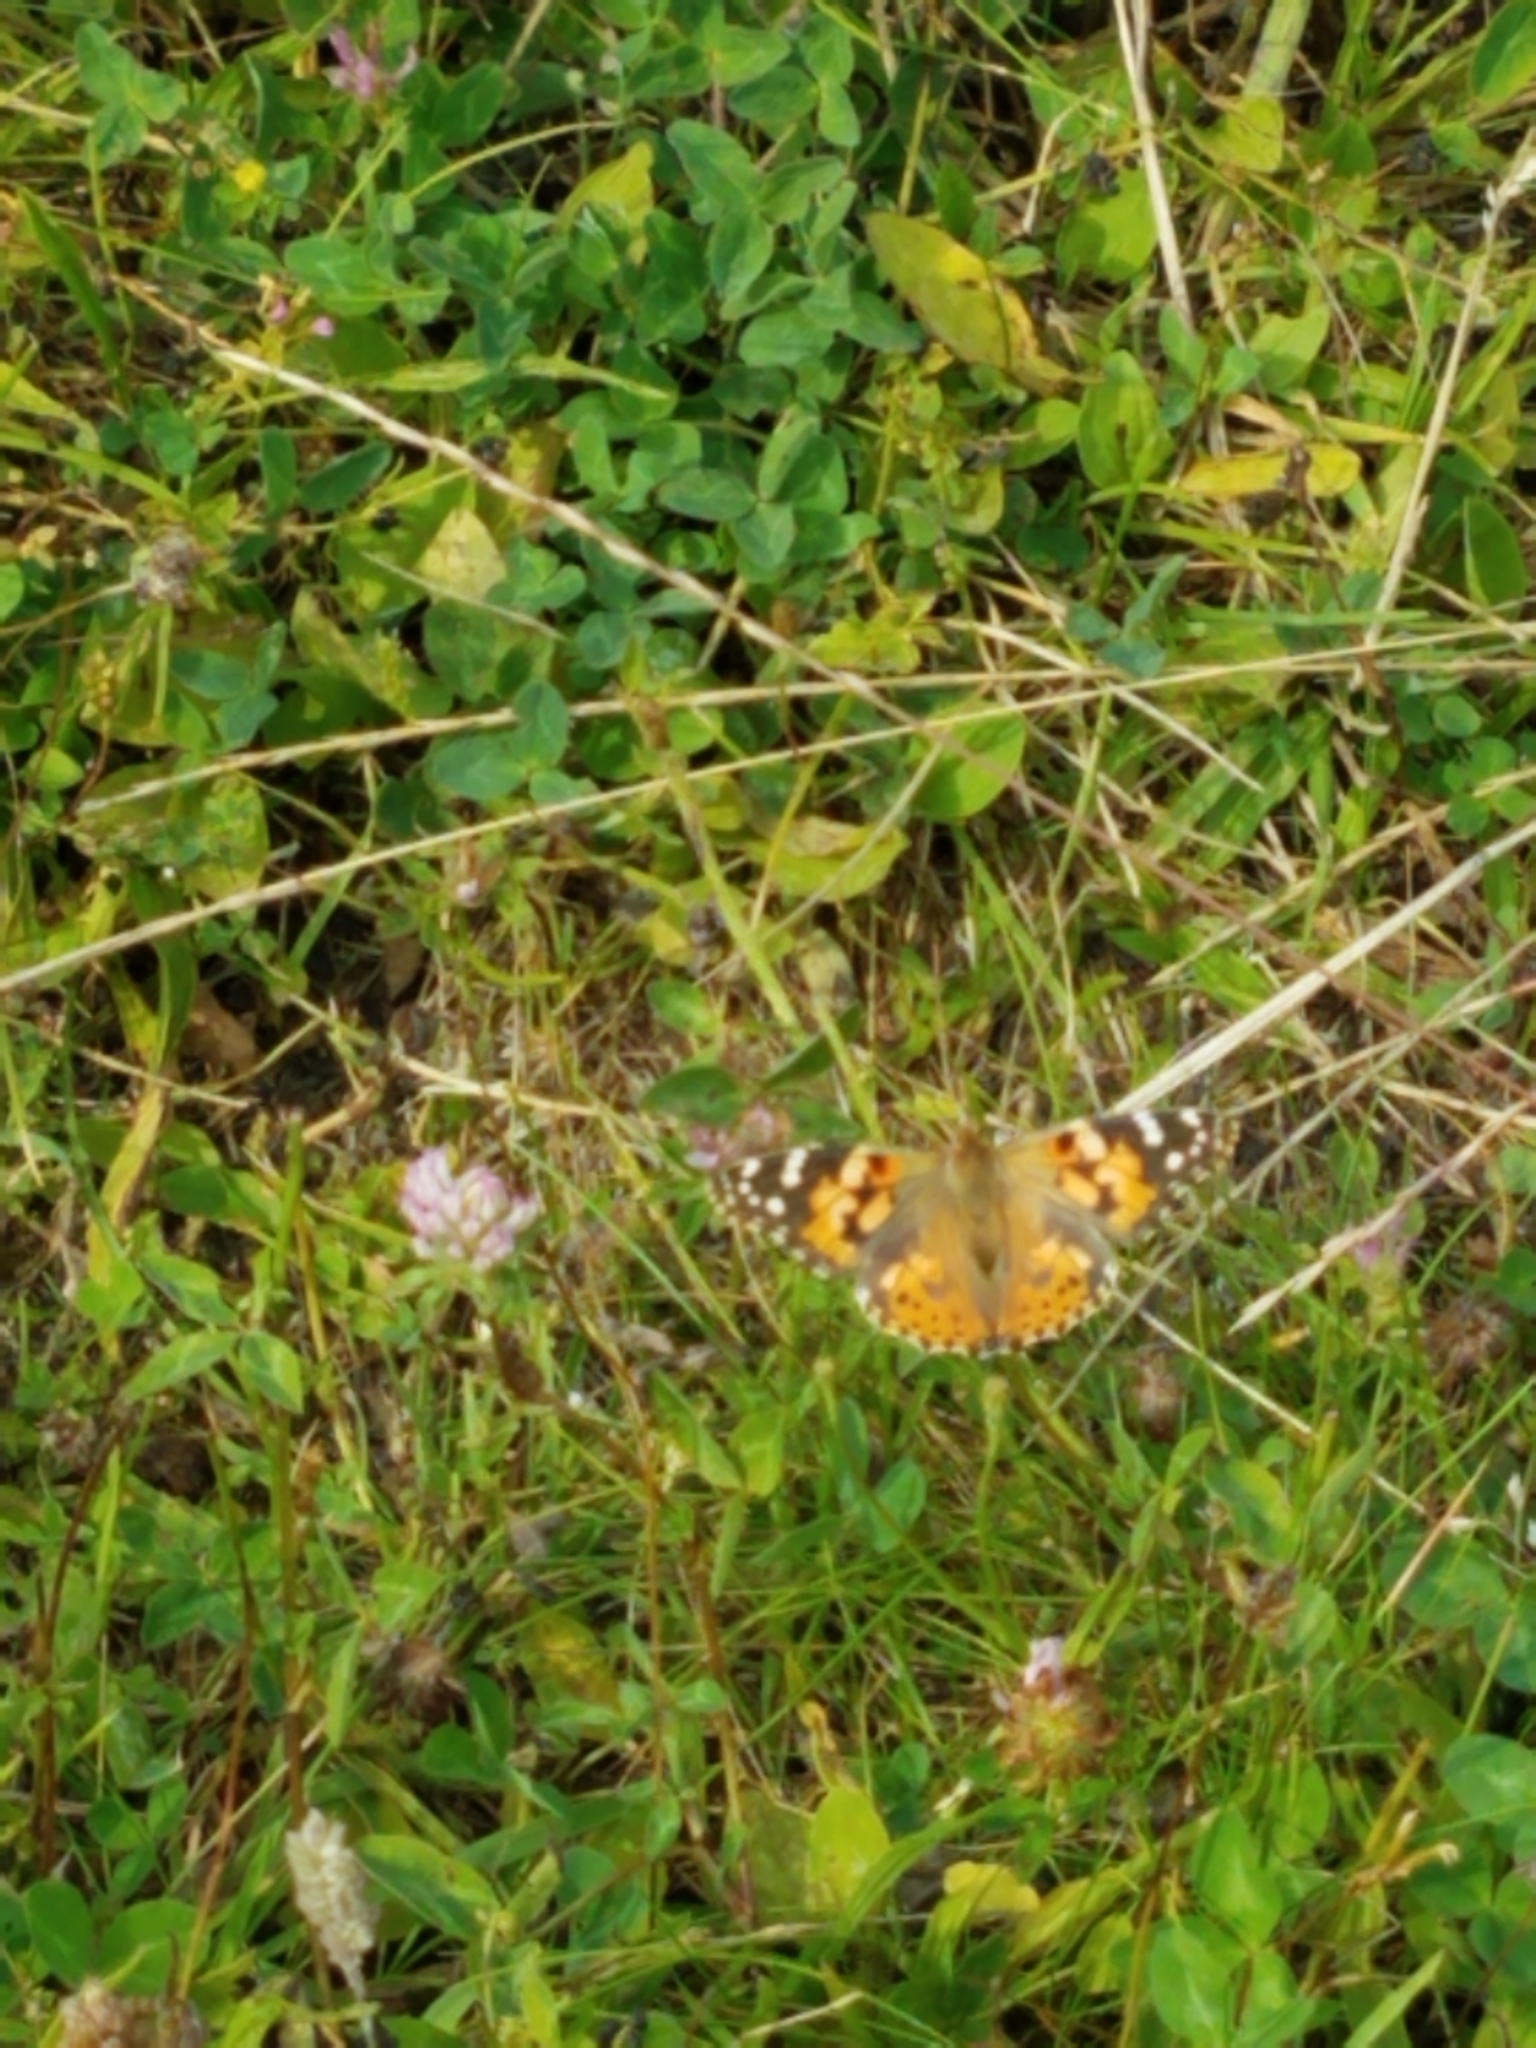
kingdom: Animalia
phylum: Arthropoda
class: Insecta
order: Lepidoptera
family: Nymphalidae
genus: Vanessa
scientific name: Vanessa cardui
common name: Painted lady
